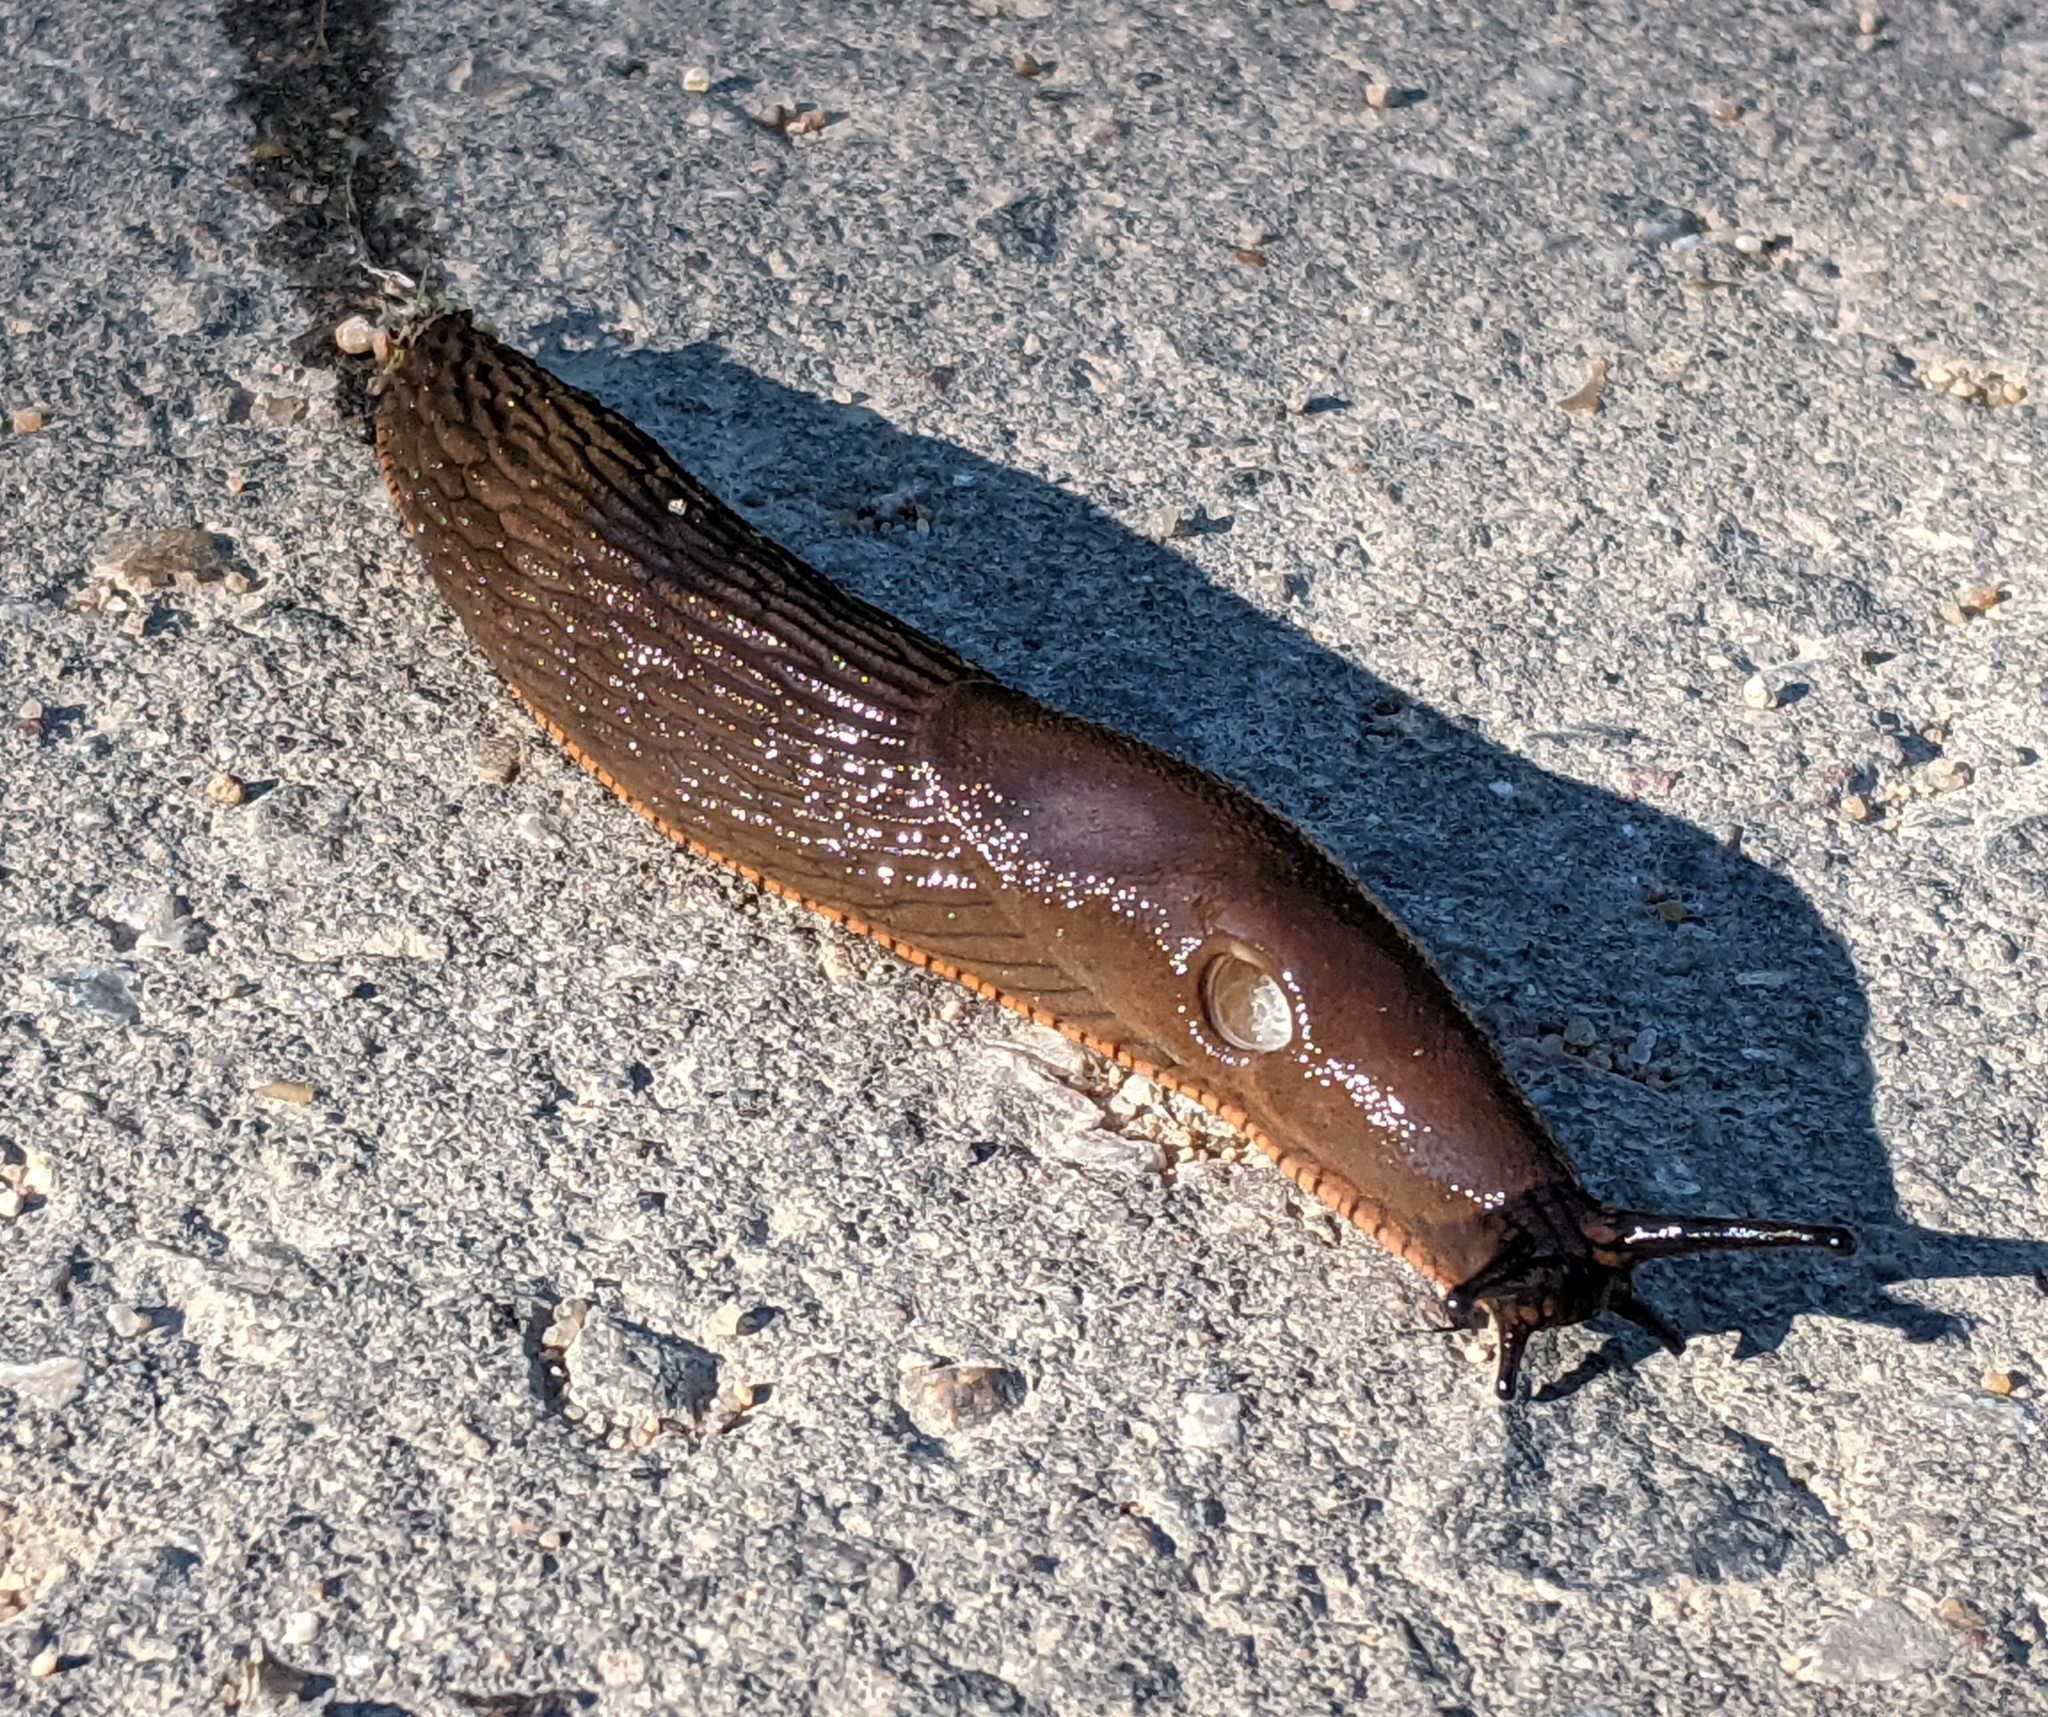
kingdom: Animalia
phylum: Mollusca
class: Gastropoda
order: Stylommatophora
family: Arionidae
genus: Arion
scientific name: Arion
